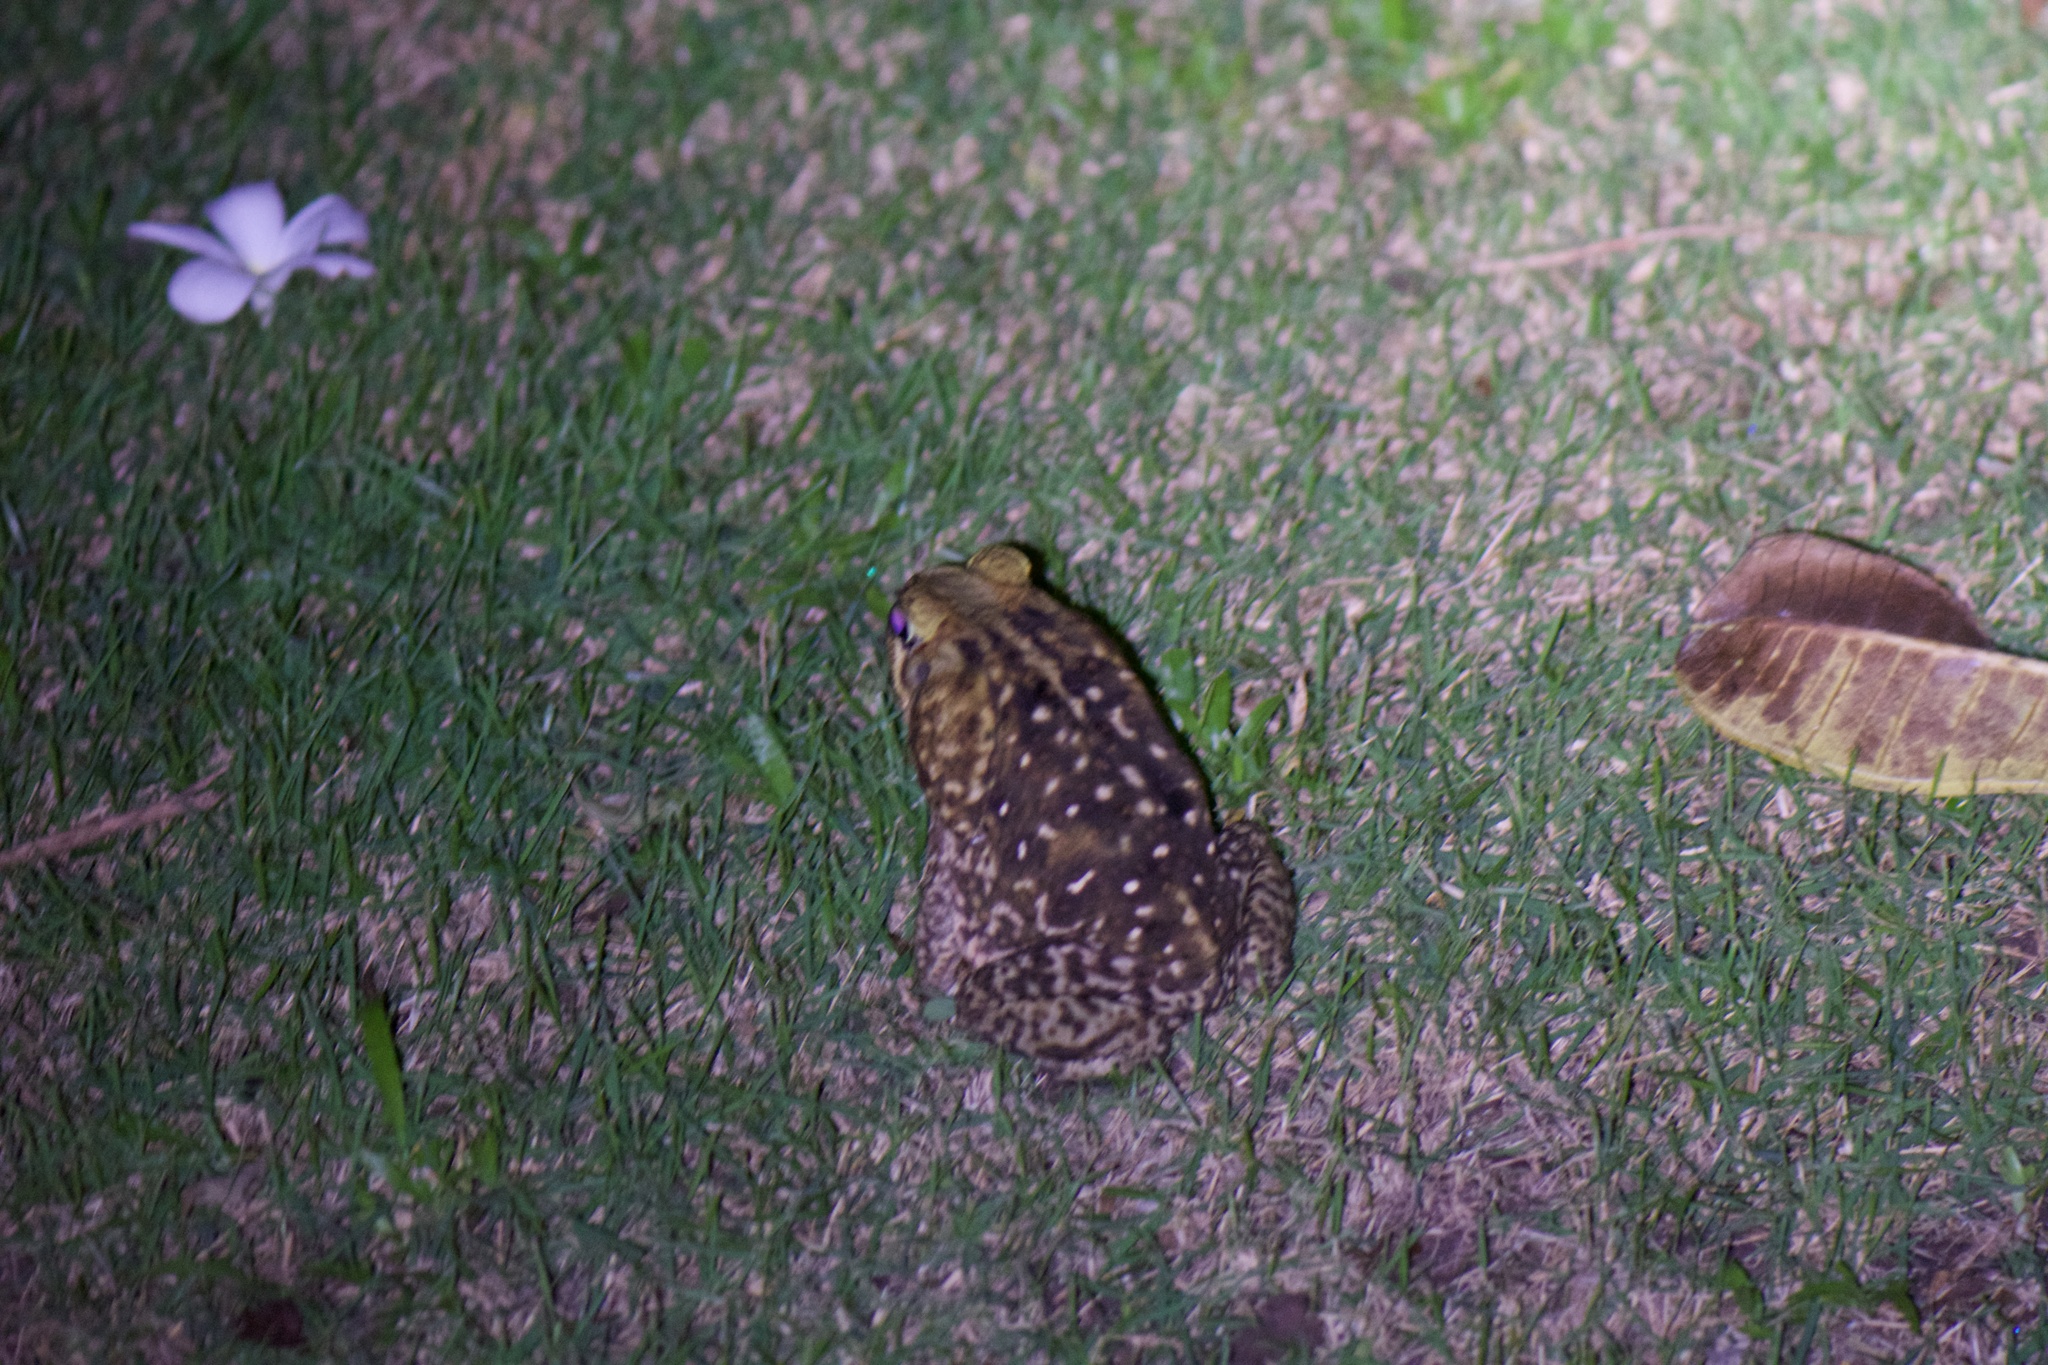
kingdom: Animalia
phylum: Chordata
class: Amphibia
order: Anura
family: Bufonidae
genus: Rhinella
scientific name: Rhinella horribilis
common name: Mesoamerican cane toad
